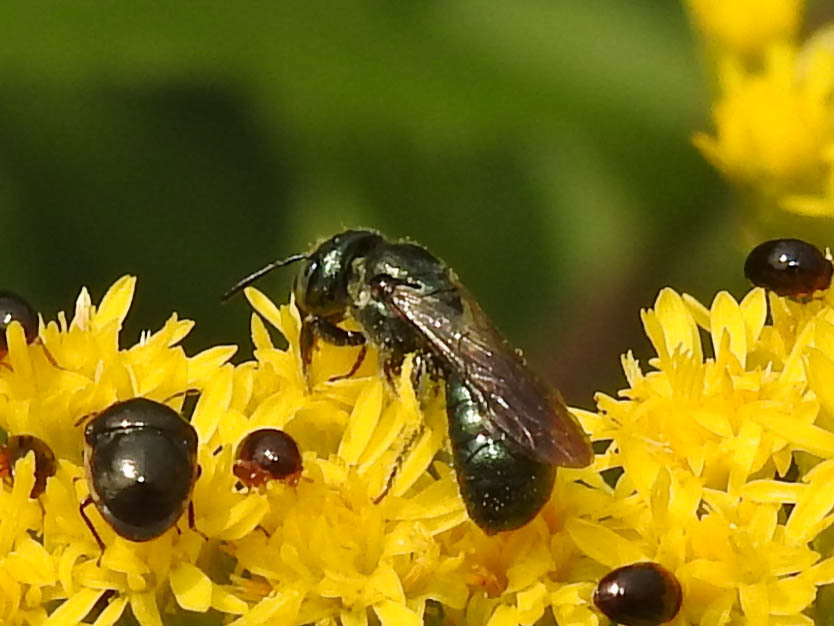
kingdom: Animalia
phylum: Arthropoda
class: Insecta
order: Hymenoptera
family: Apidae
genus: Zadontomerus
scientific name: Zadontomerus
